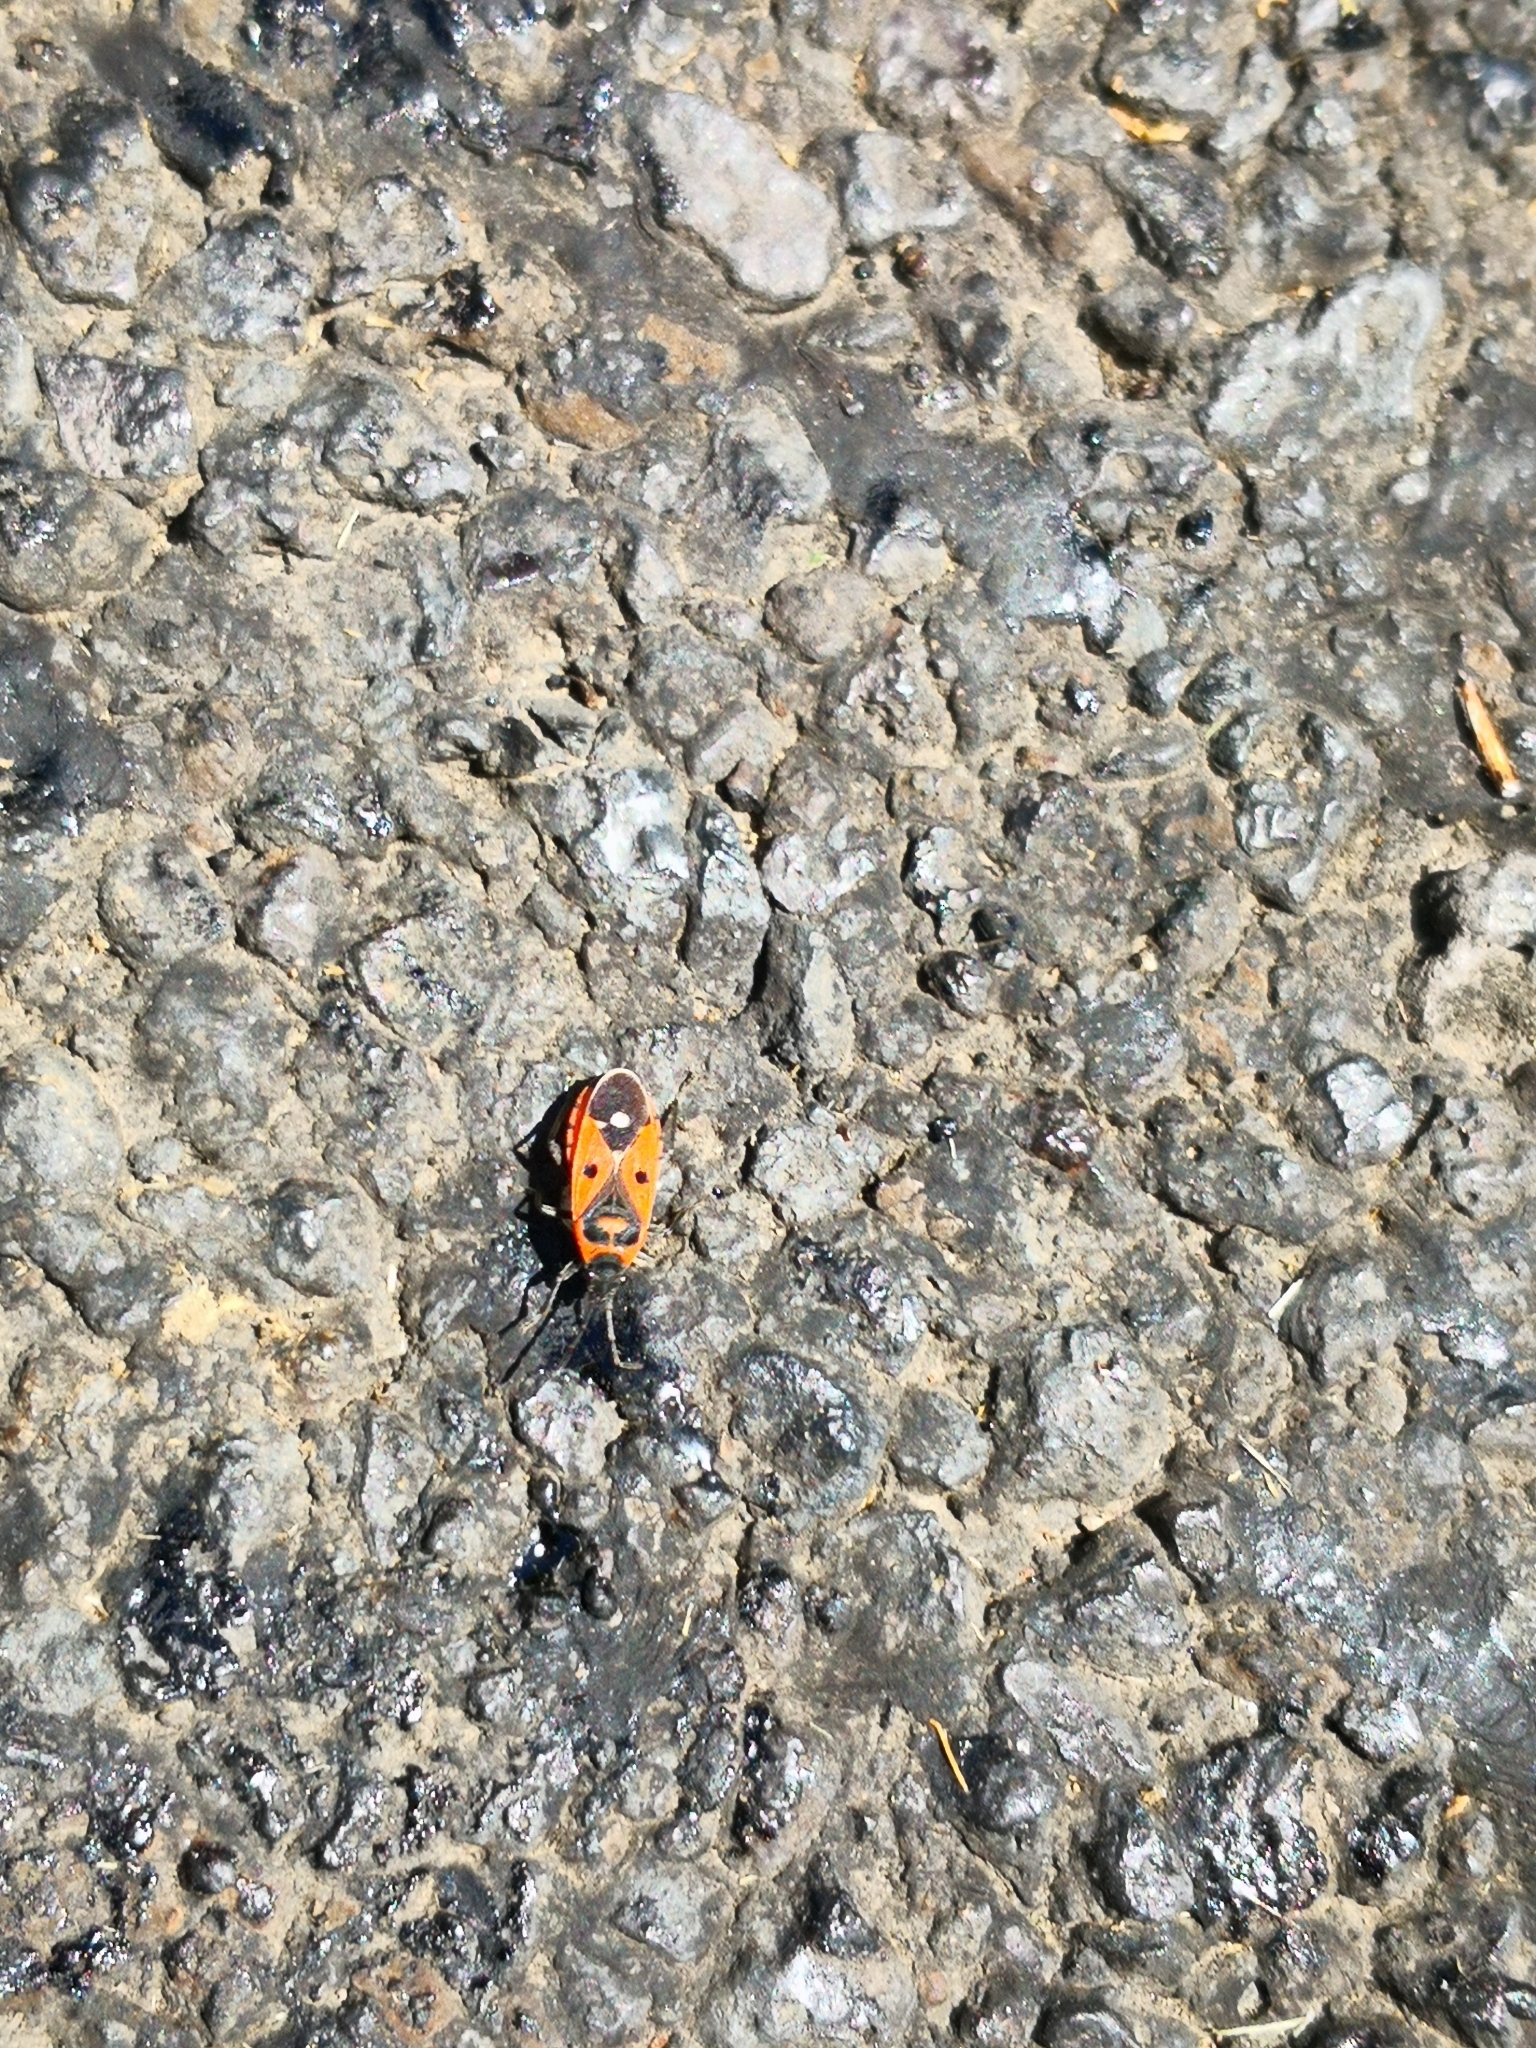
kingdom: Animalia
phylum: Arthropoda
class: Insecta
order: Hemiptera
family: Lygaeidae
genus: Melanocoryphus
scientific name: Melanocoryphus albomaculatus
